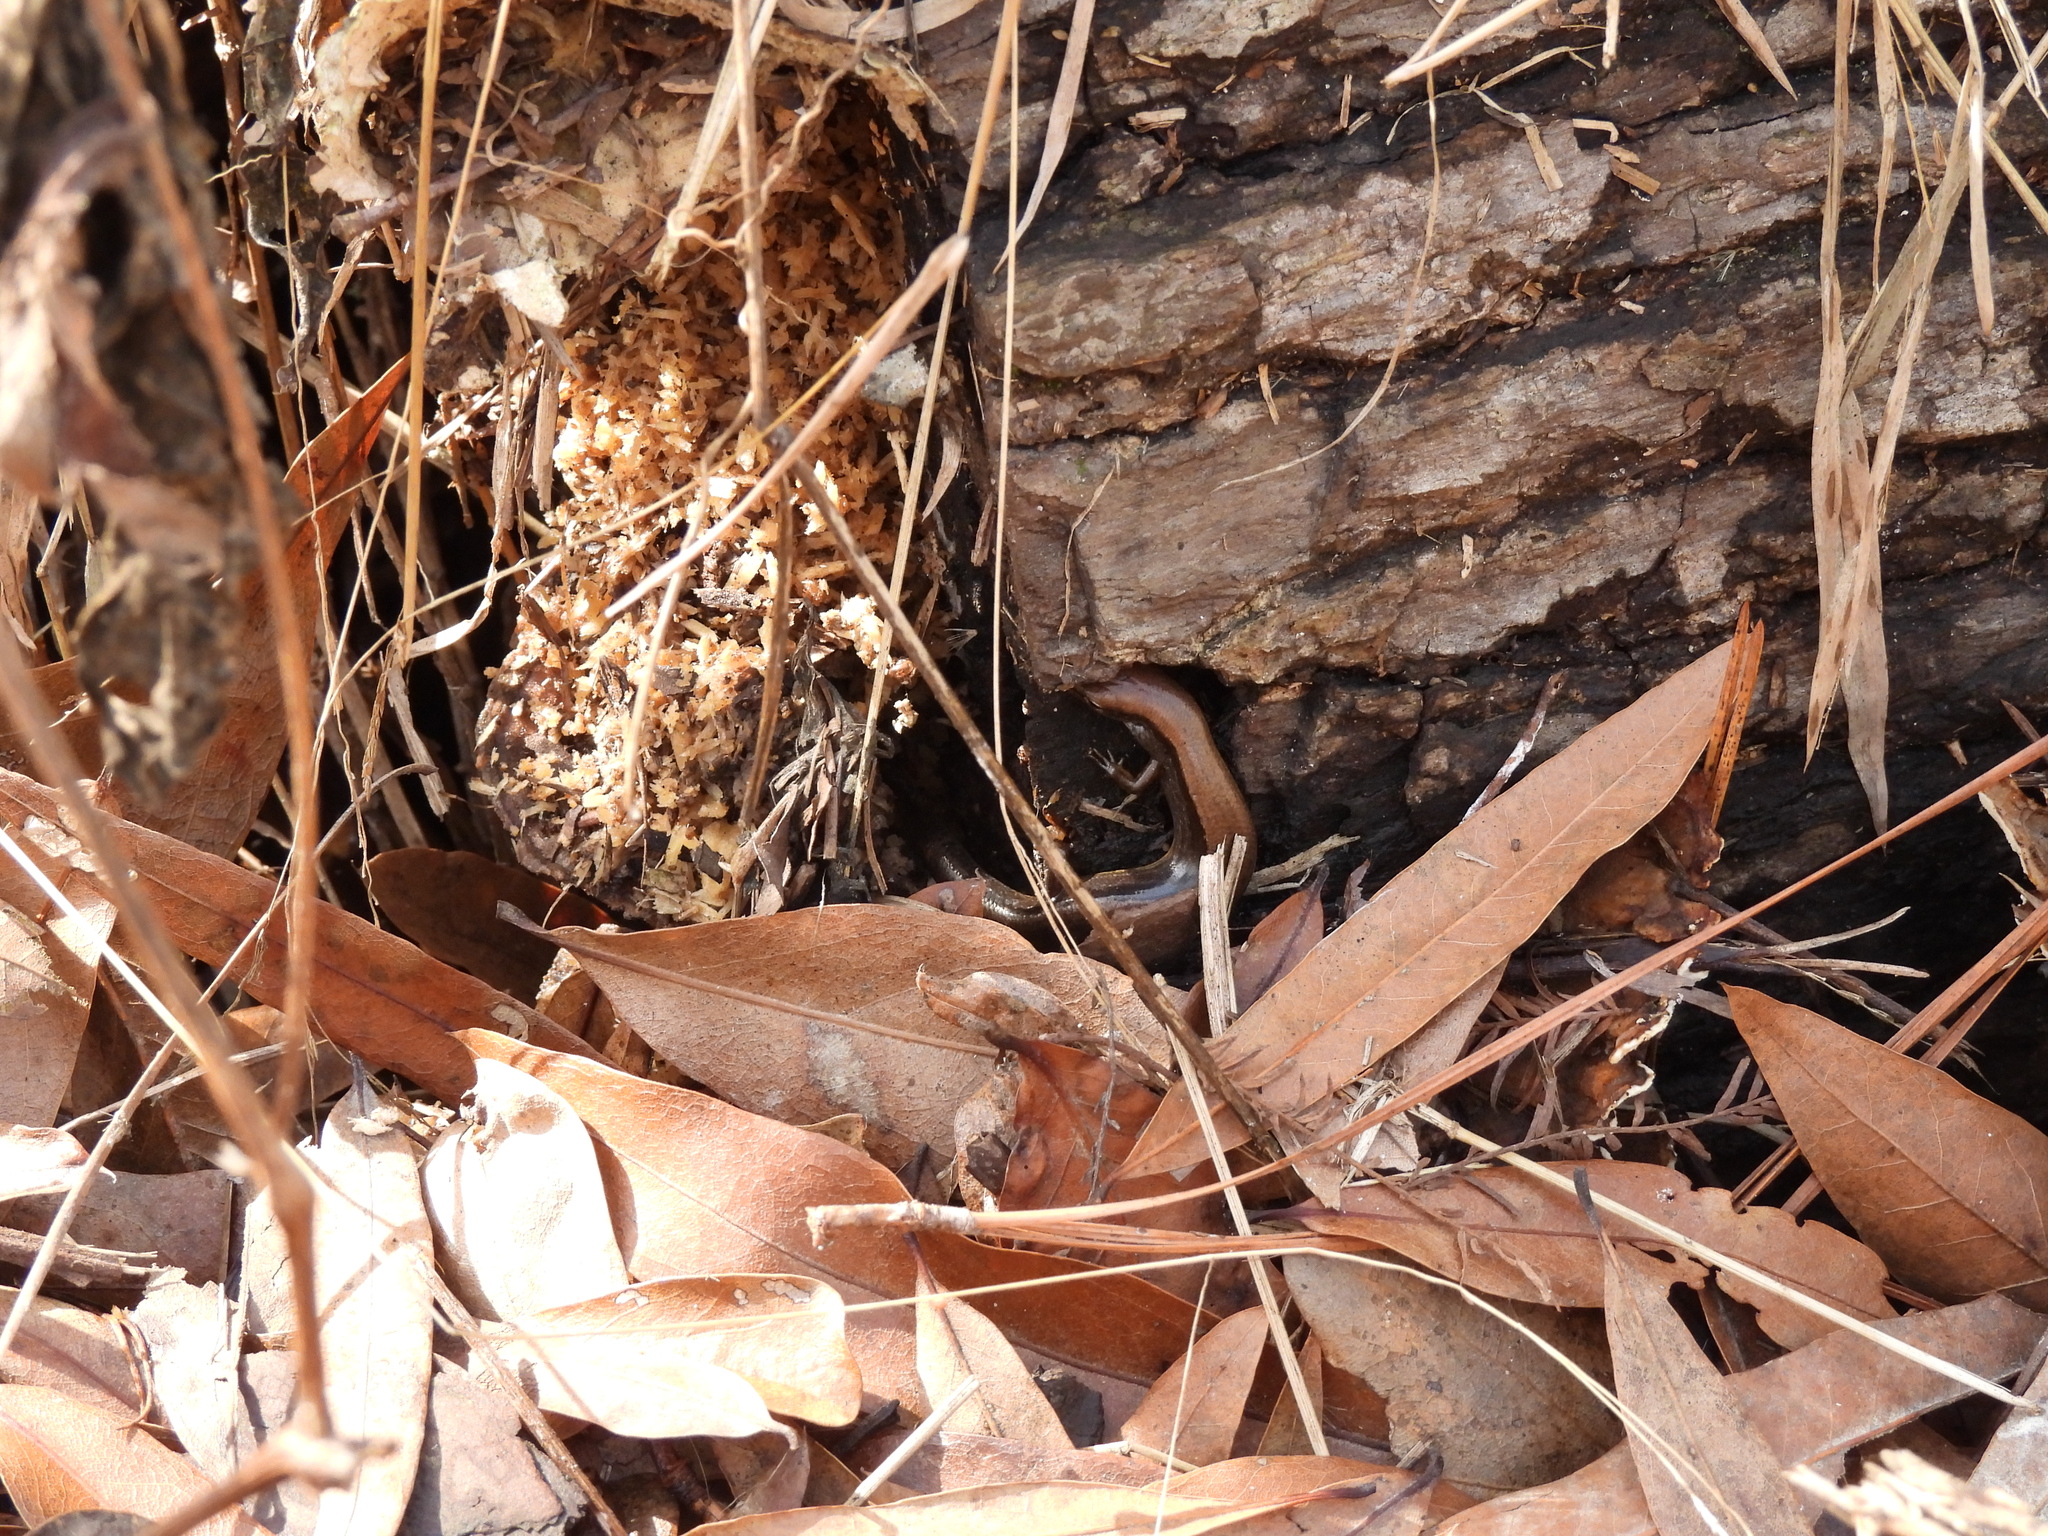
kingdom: Animalia
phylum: Chordata
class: Squamata
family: Scincidae
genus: Scincella
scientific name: Scincella lateralis
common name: Ground skink
